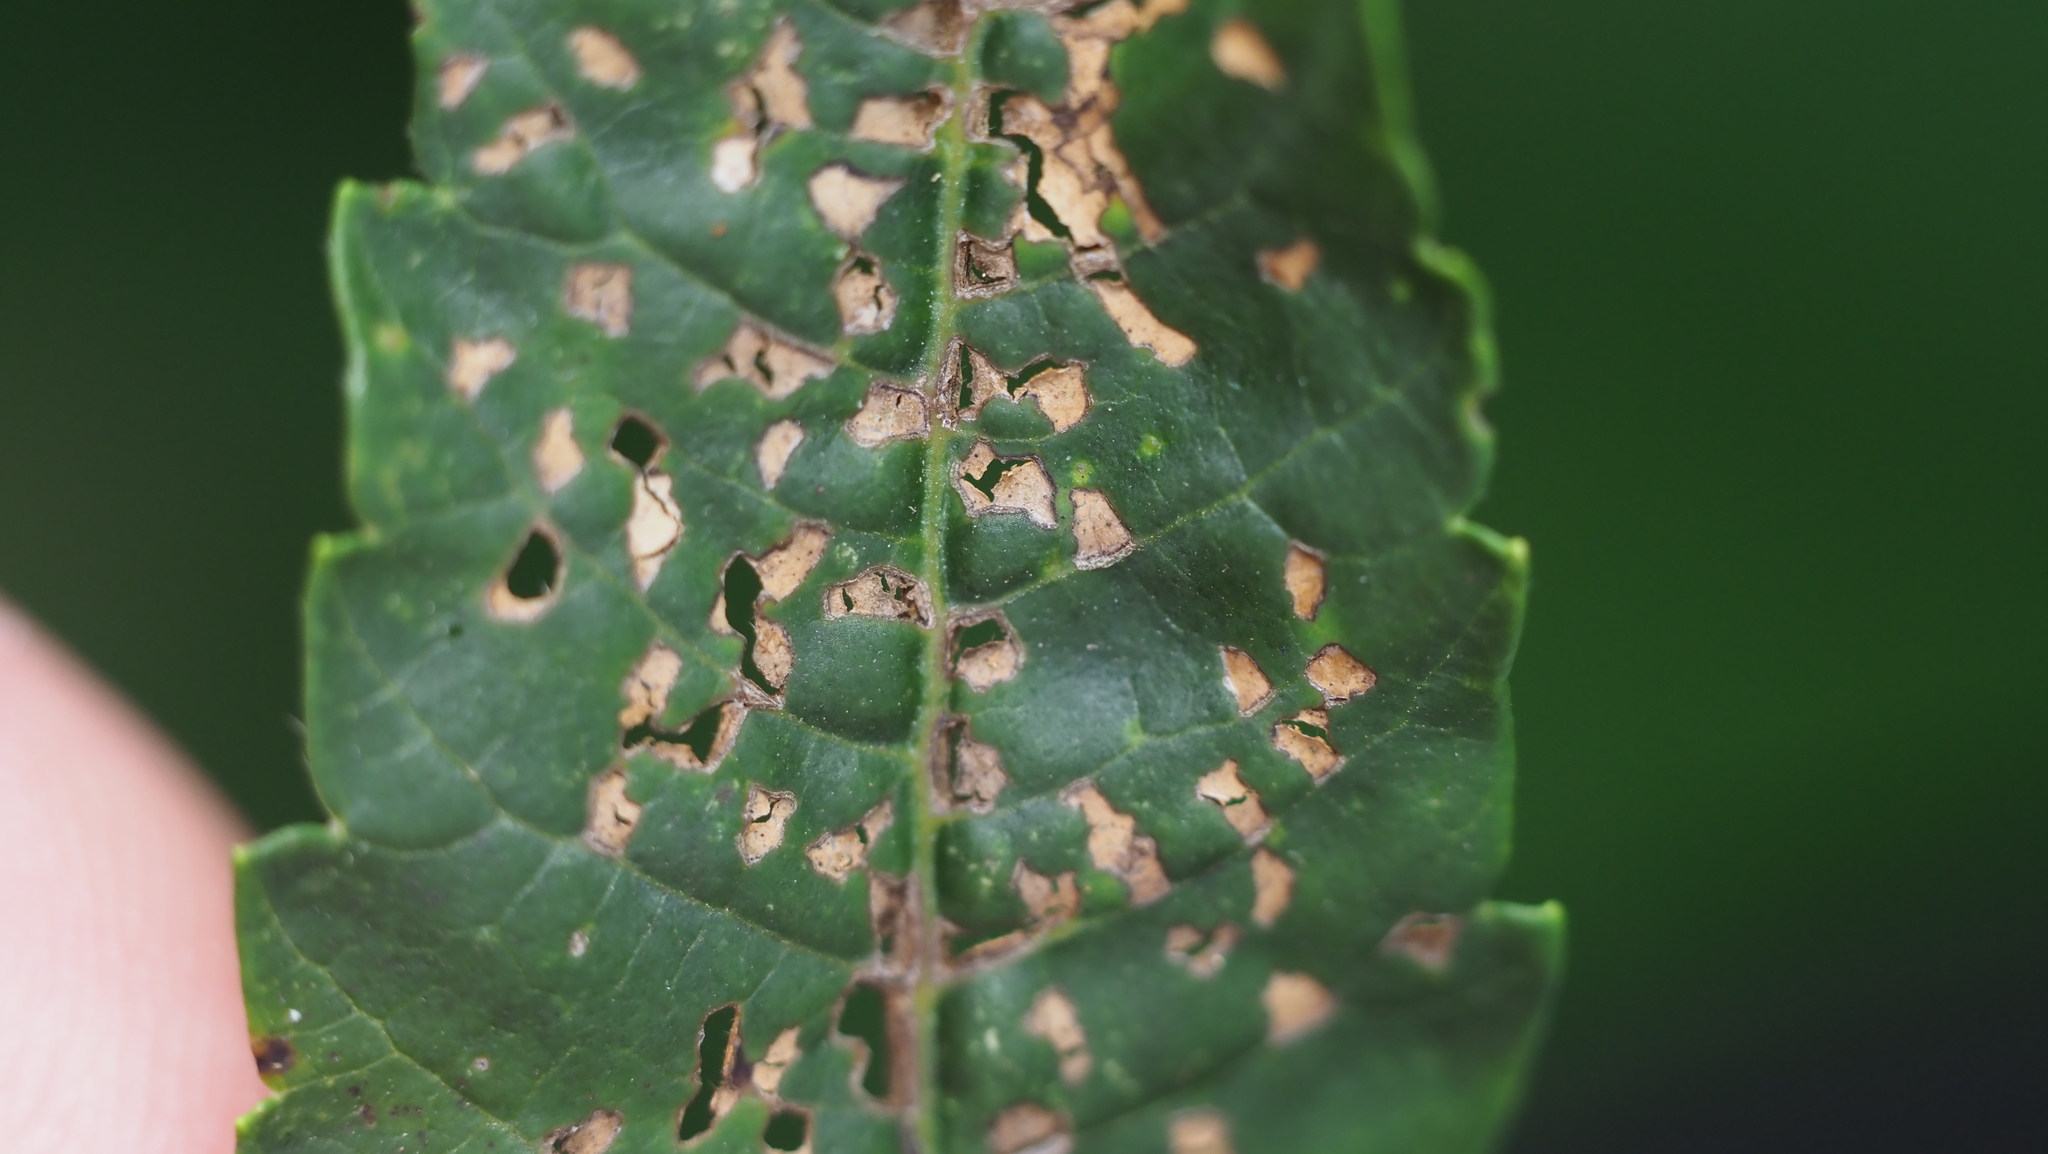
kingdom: Animalia
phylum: Arthropoda
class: Insecta
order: Hemiptera
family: Miridae
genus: Poecilocapsus
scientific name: Poecilocapsus lineatus
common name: Four-lined plant bug
